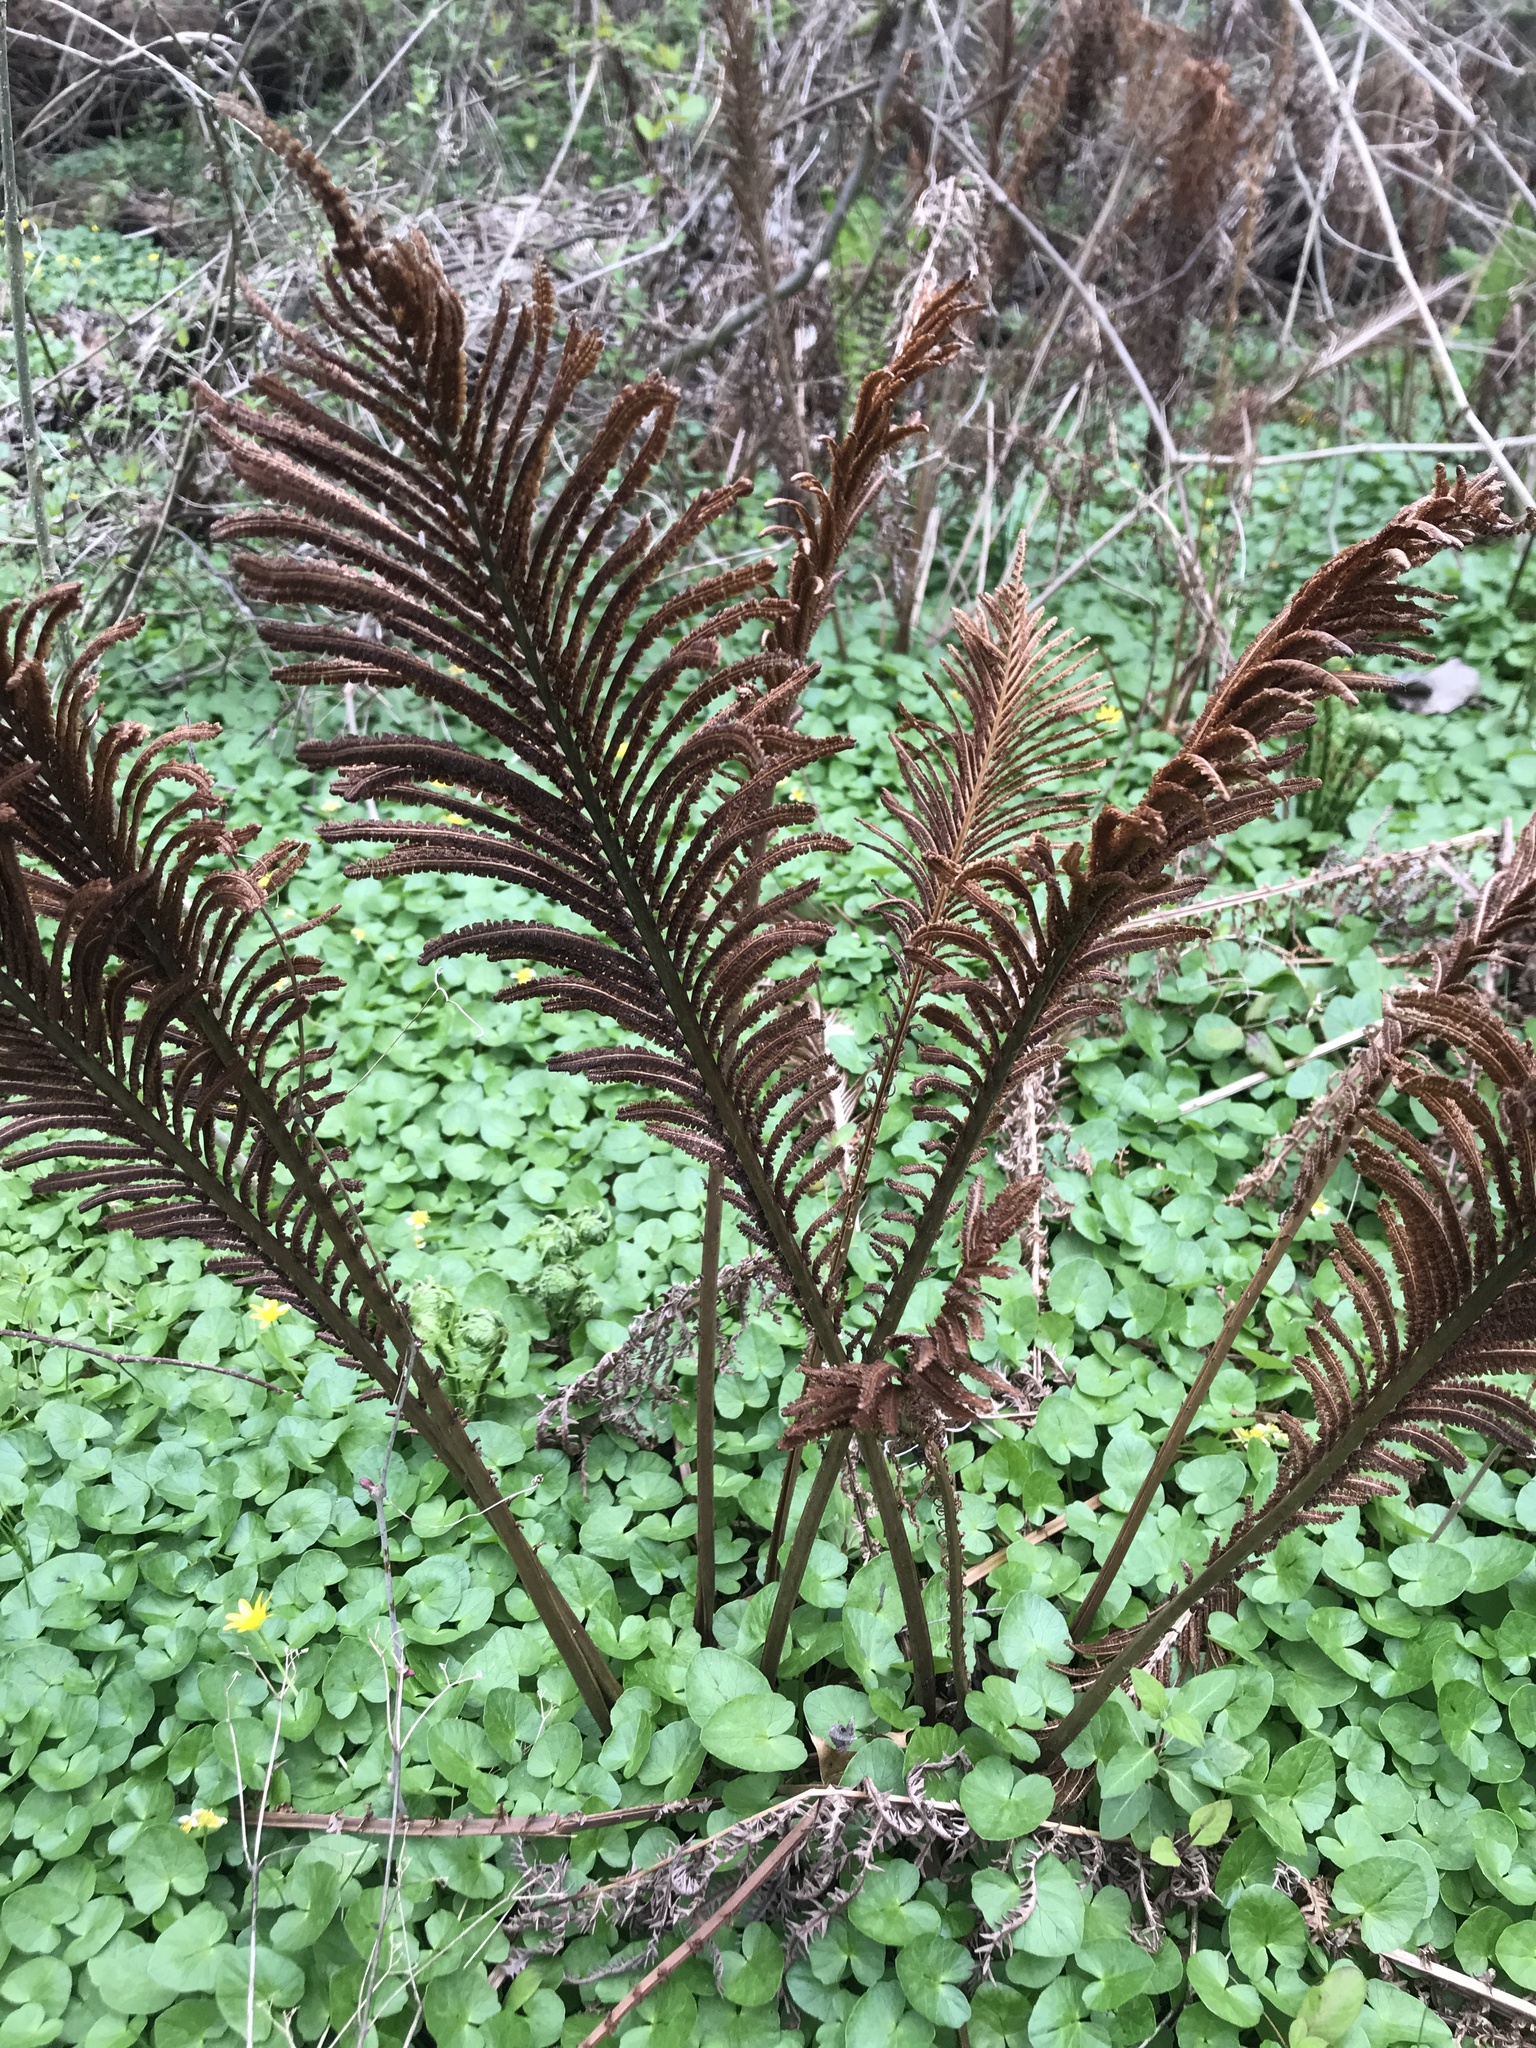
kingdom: Plantae
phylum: Tracheophyta
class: Polypodiopsida
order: Polypodiales
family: Onocleaceae
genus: Matteuccia
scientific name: Matteuccia struthiopteris
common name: Ostrich fern
